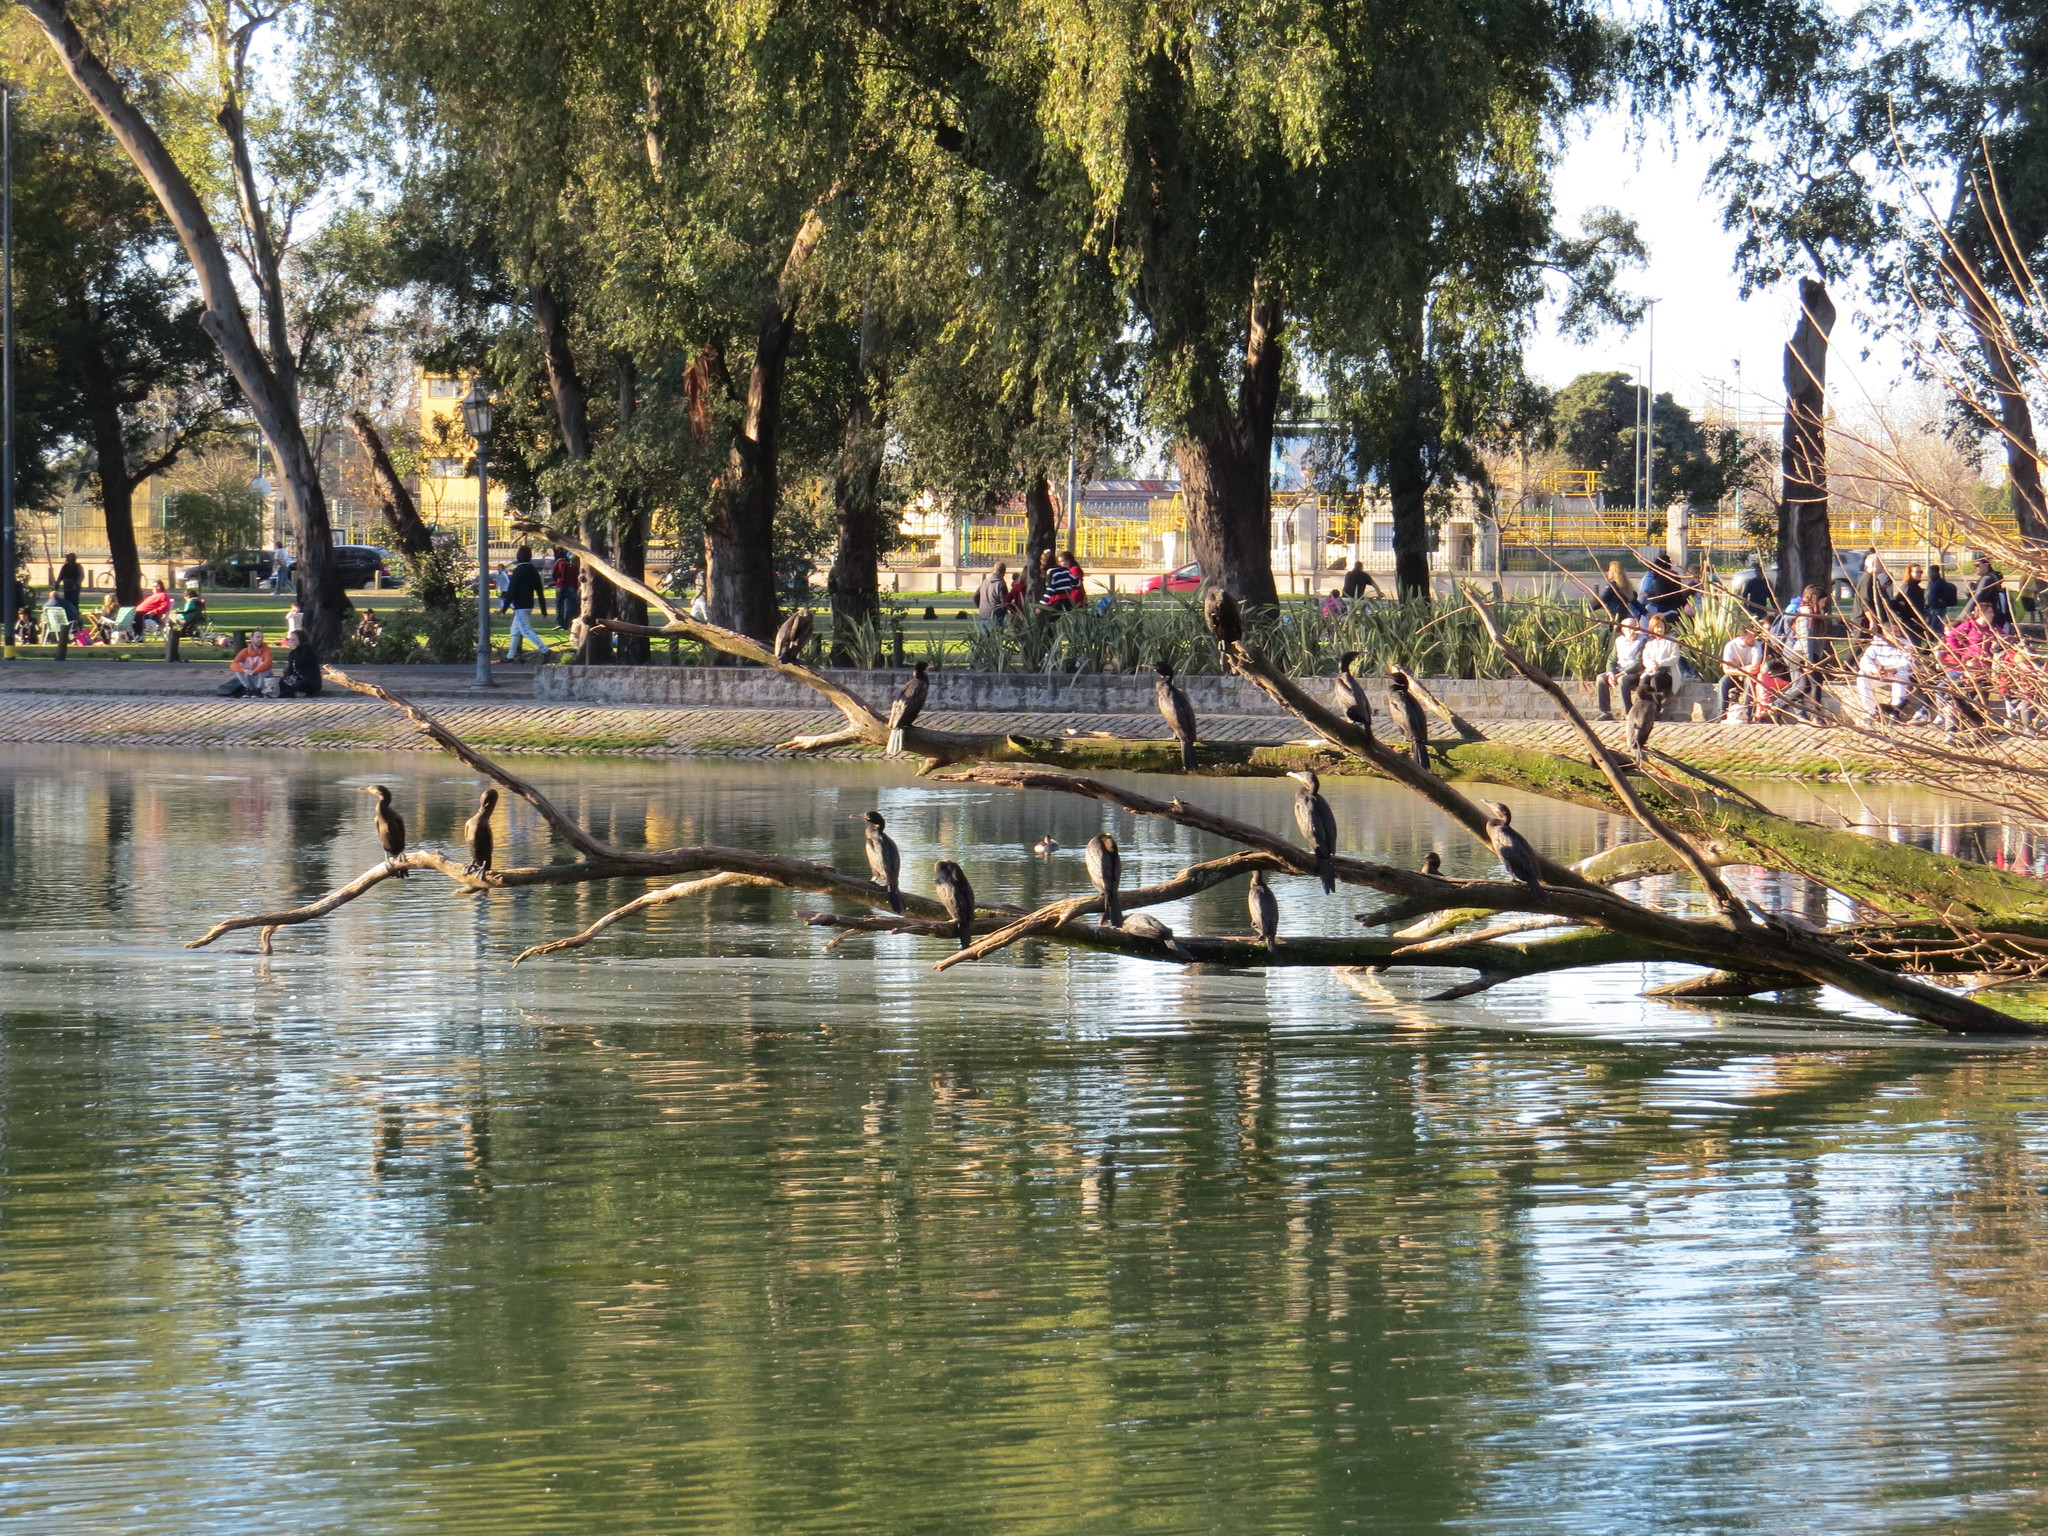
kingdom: Animalia
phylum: Chordata
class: Aves
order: Suliformes
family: Phalacrocoracidae
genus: Phalacrocorax
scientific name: Phalacrocorax brasilianus
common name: Neotropic cormorant
